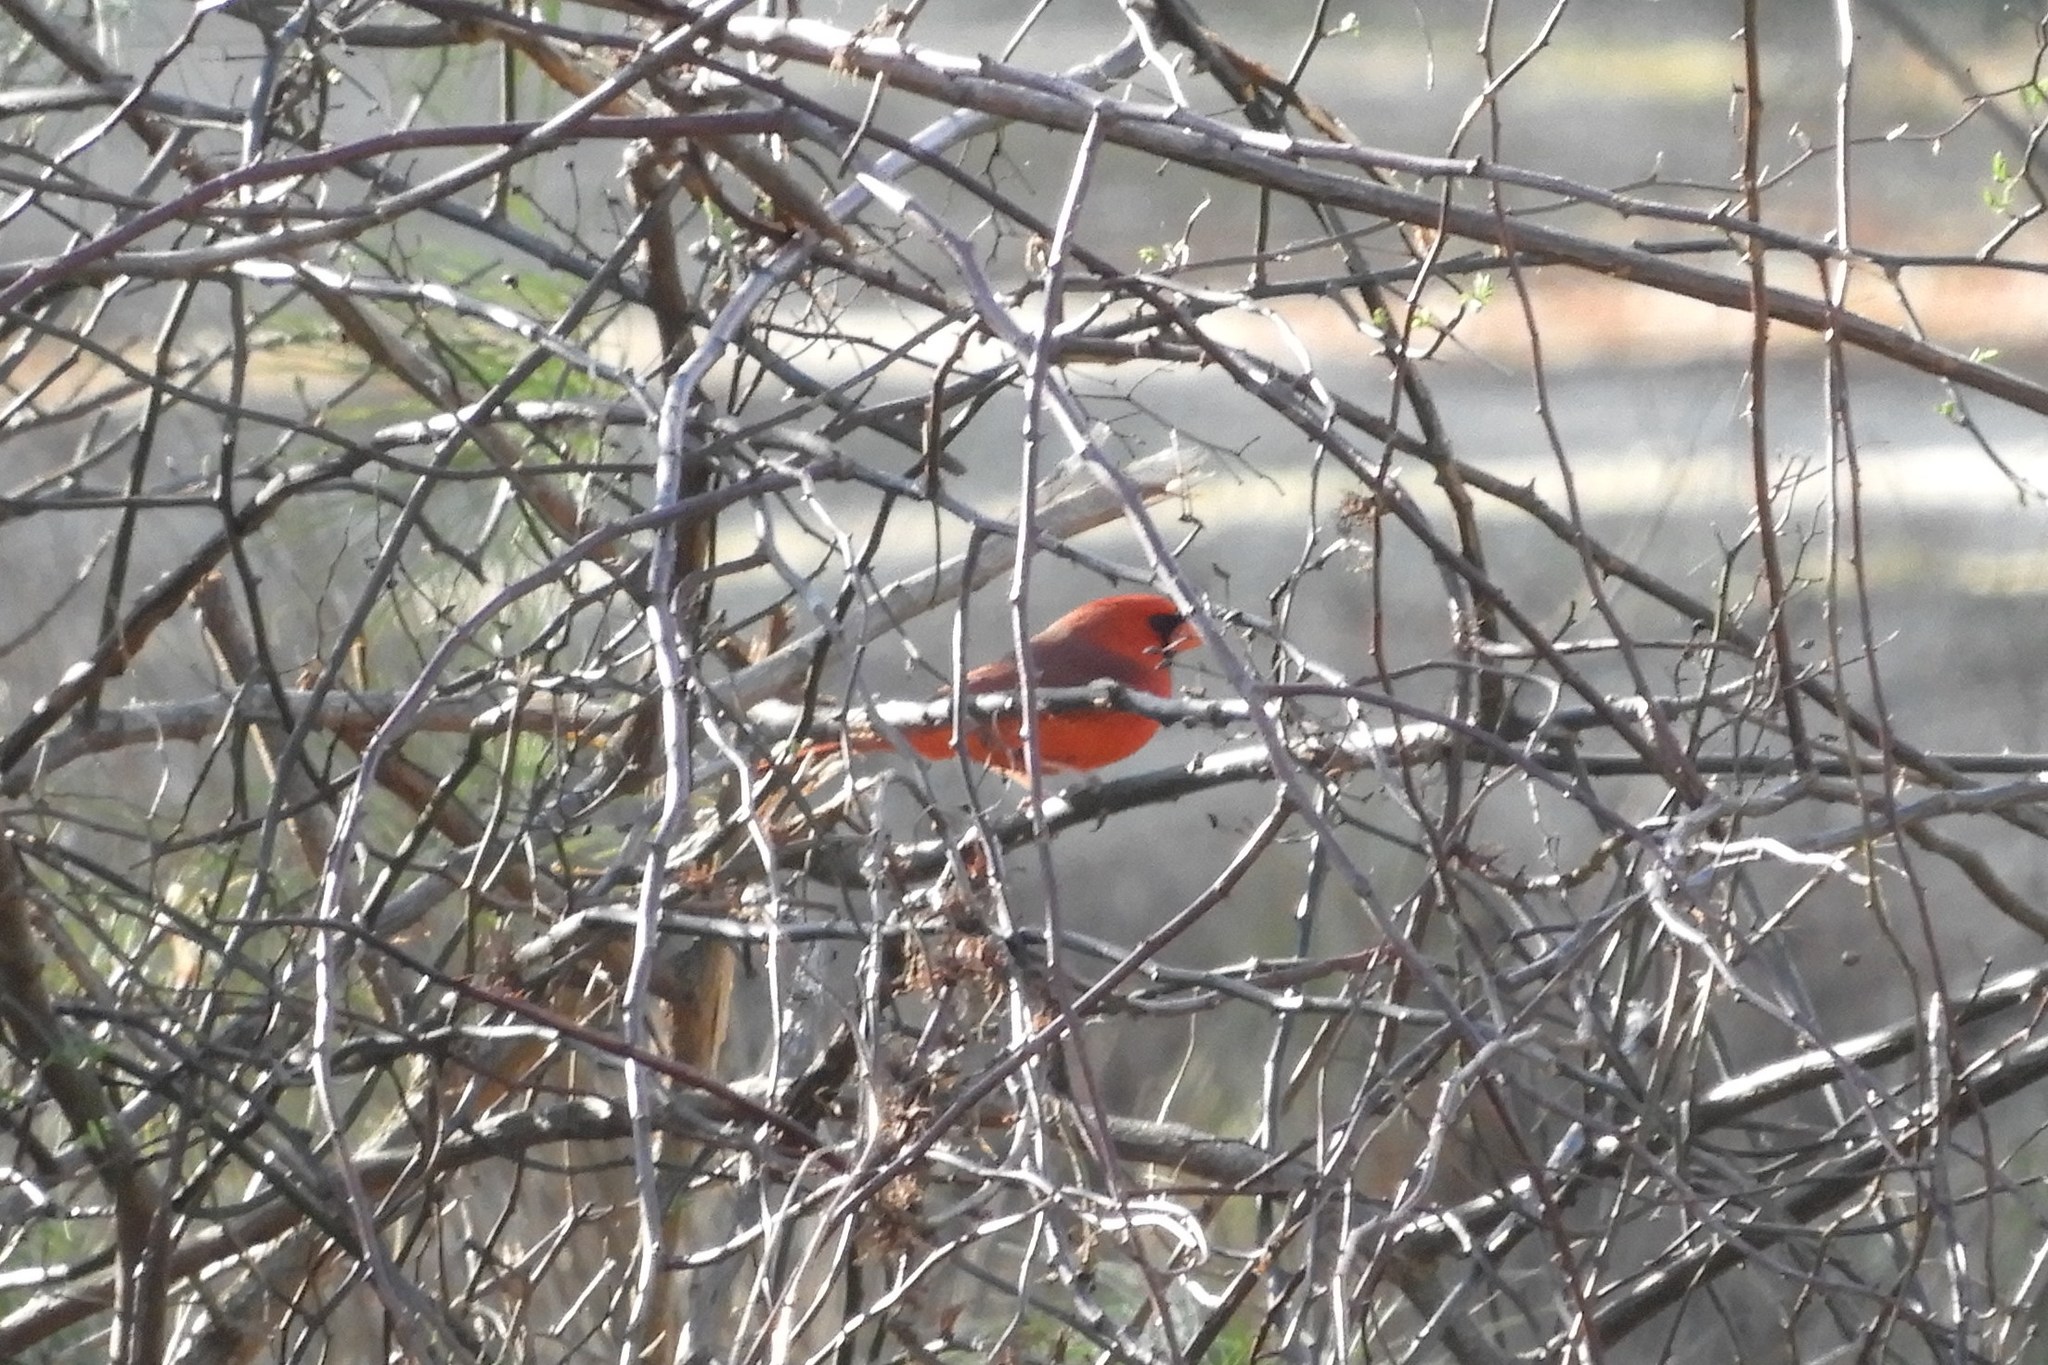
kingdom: Animalia
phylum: Chordata
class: Aves
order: Passeriformes
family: Cardinalidae
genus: Cardinalis
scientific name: Cardinalis cardinalis
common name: Northern cardinal
